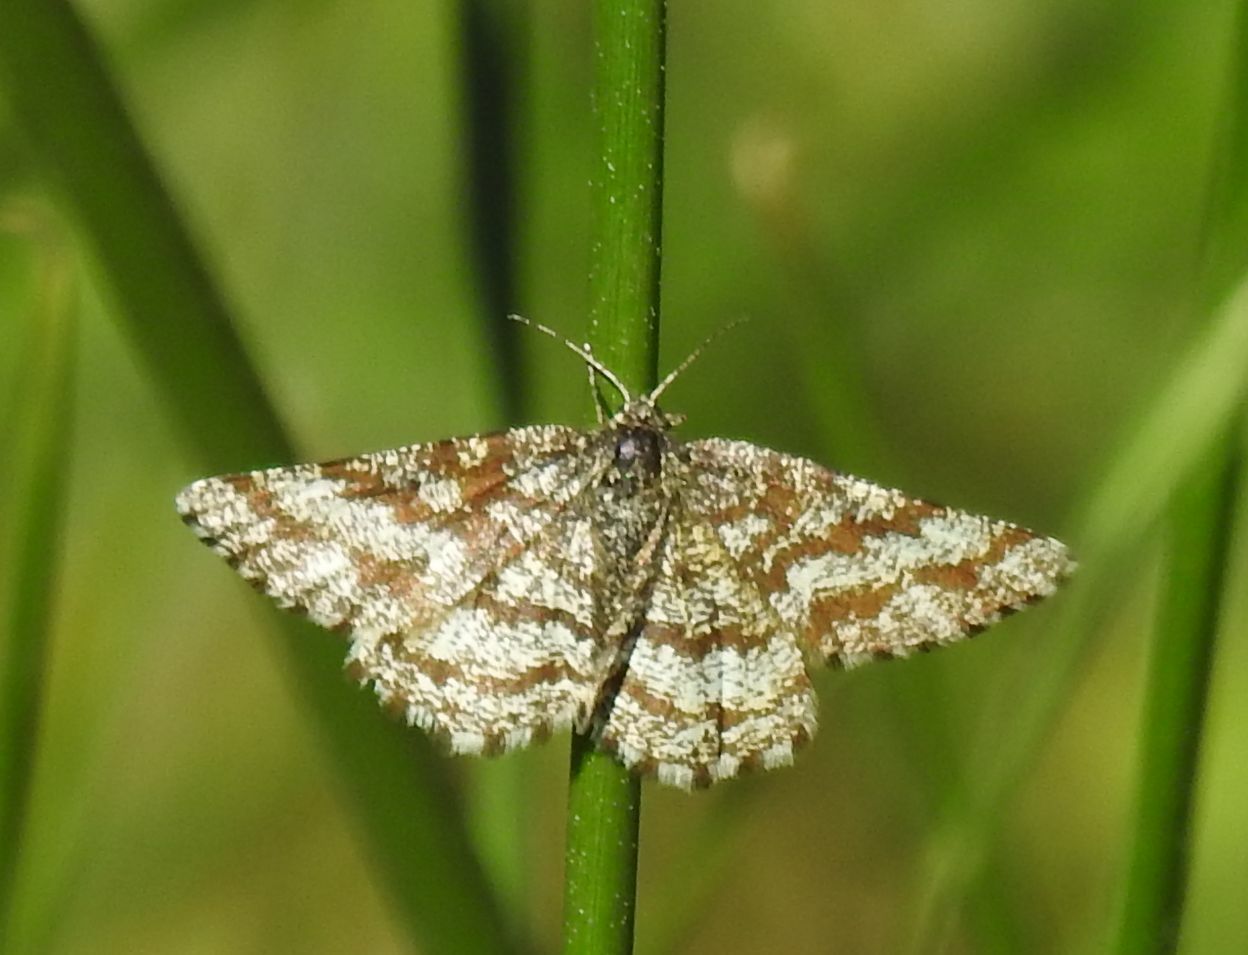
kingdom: Animalia
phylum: Arthropoda
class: Insecta
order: Lepidoptera
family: Geometridae
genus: Ematurga
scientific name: Ematurga atomaria
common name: Common heath
